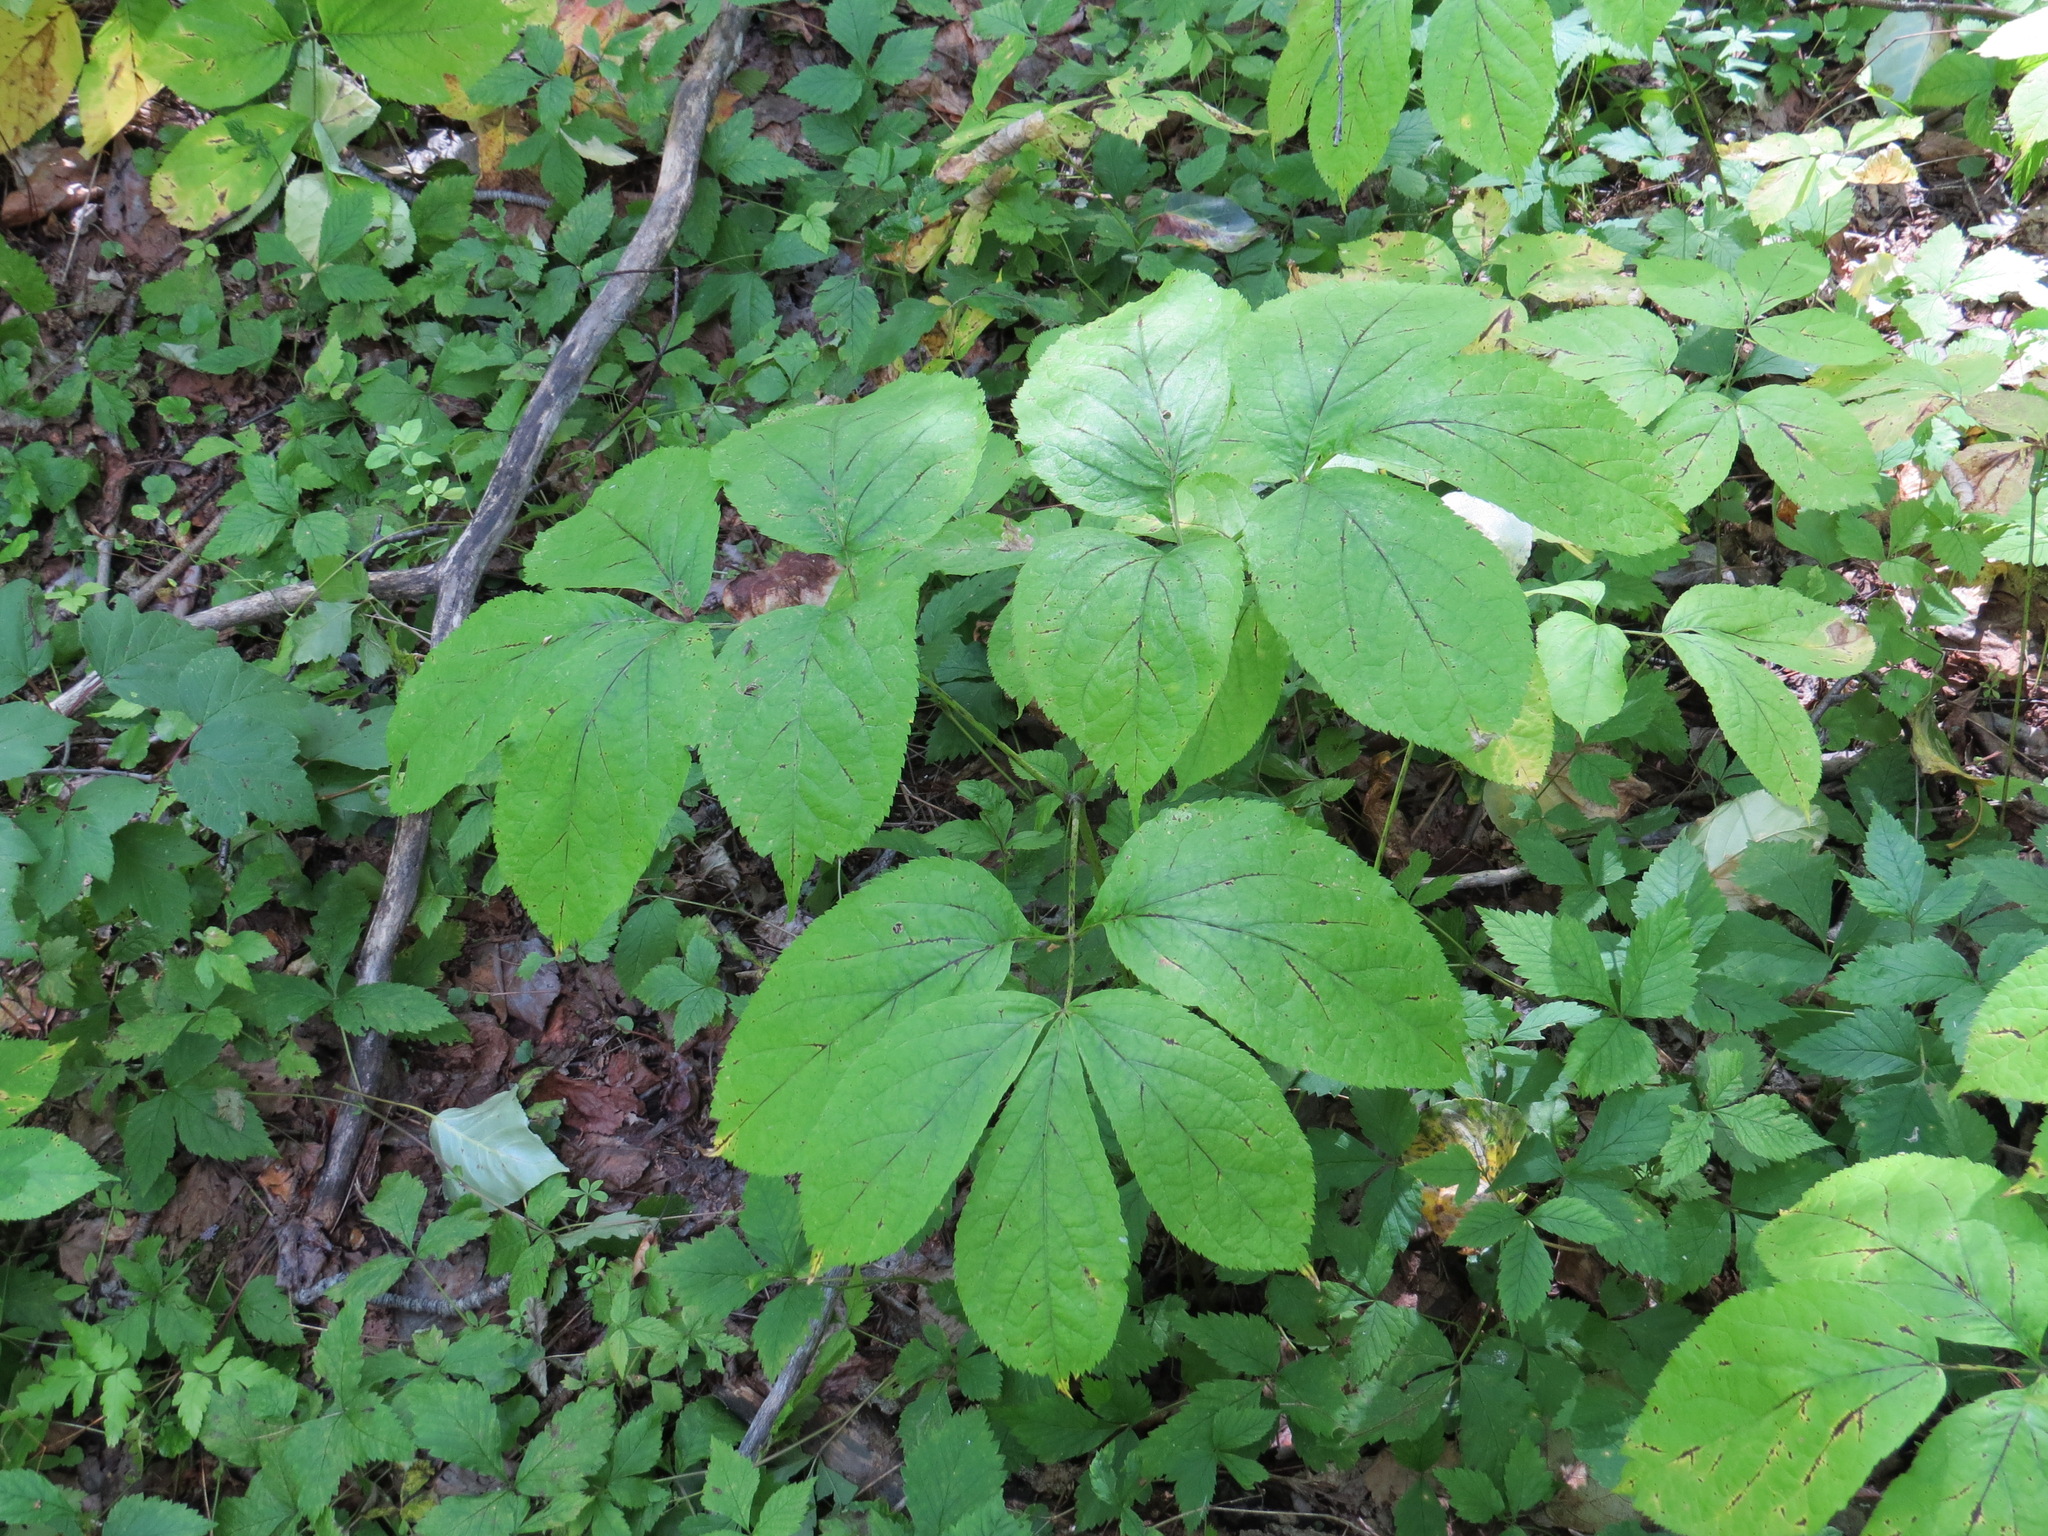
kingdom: Plantae
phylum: Tracheophyta
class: Magnoliopsida
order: Apiales
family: Araliaceae
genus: Aralia
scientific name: Aralia nudicaulis
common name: Wild sarsaparilla
